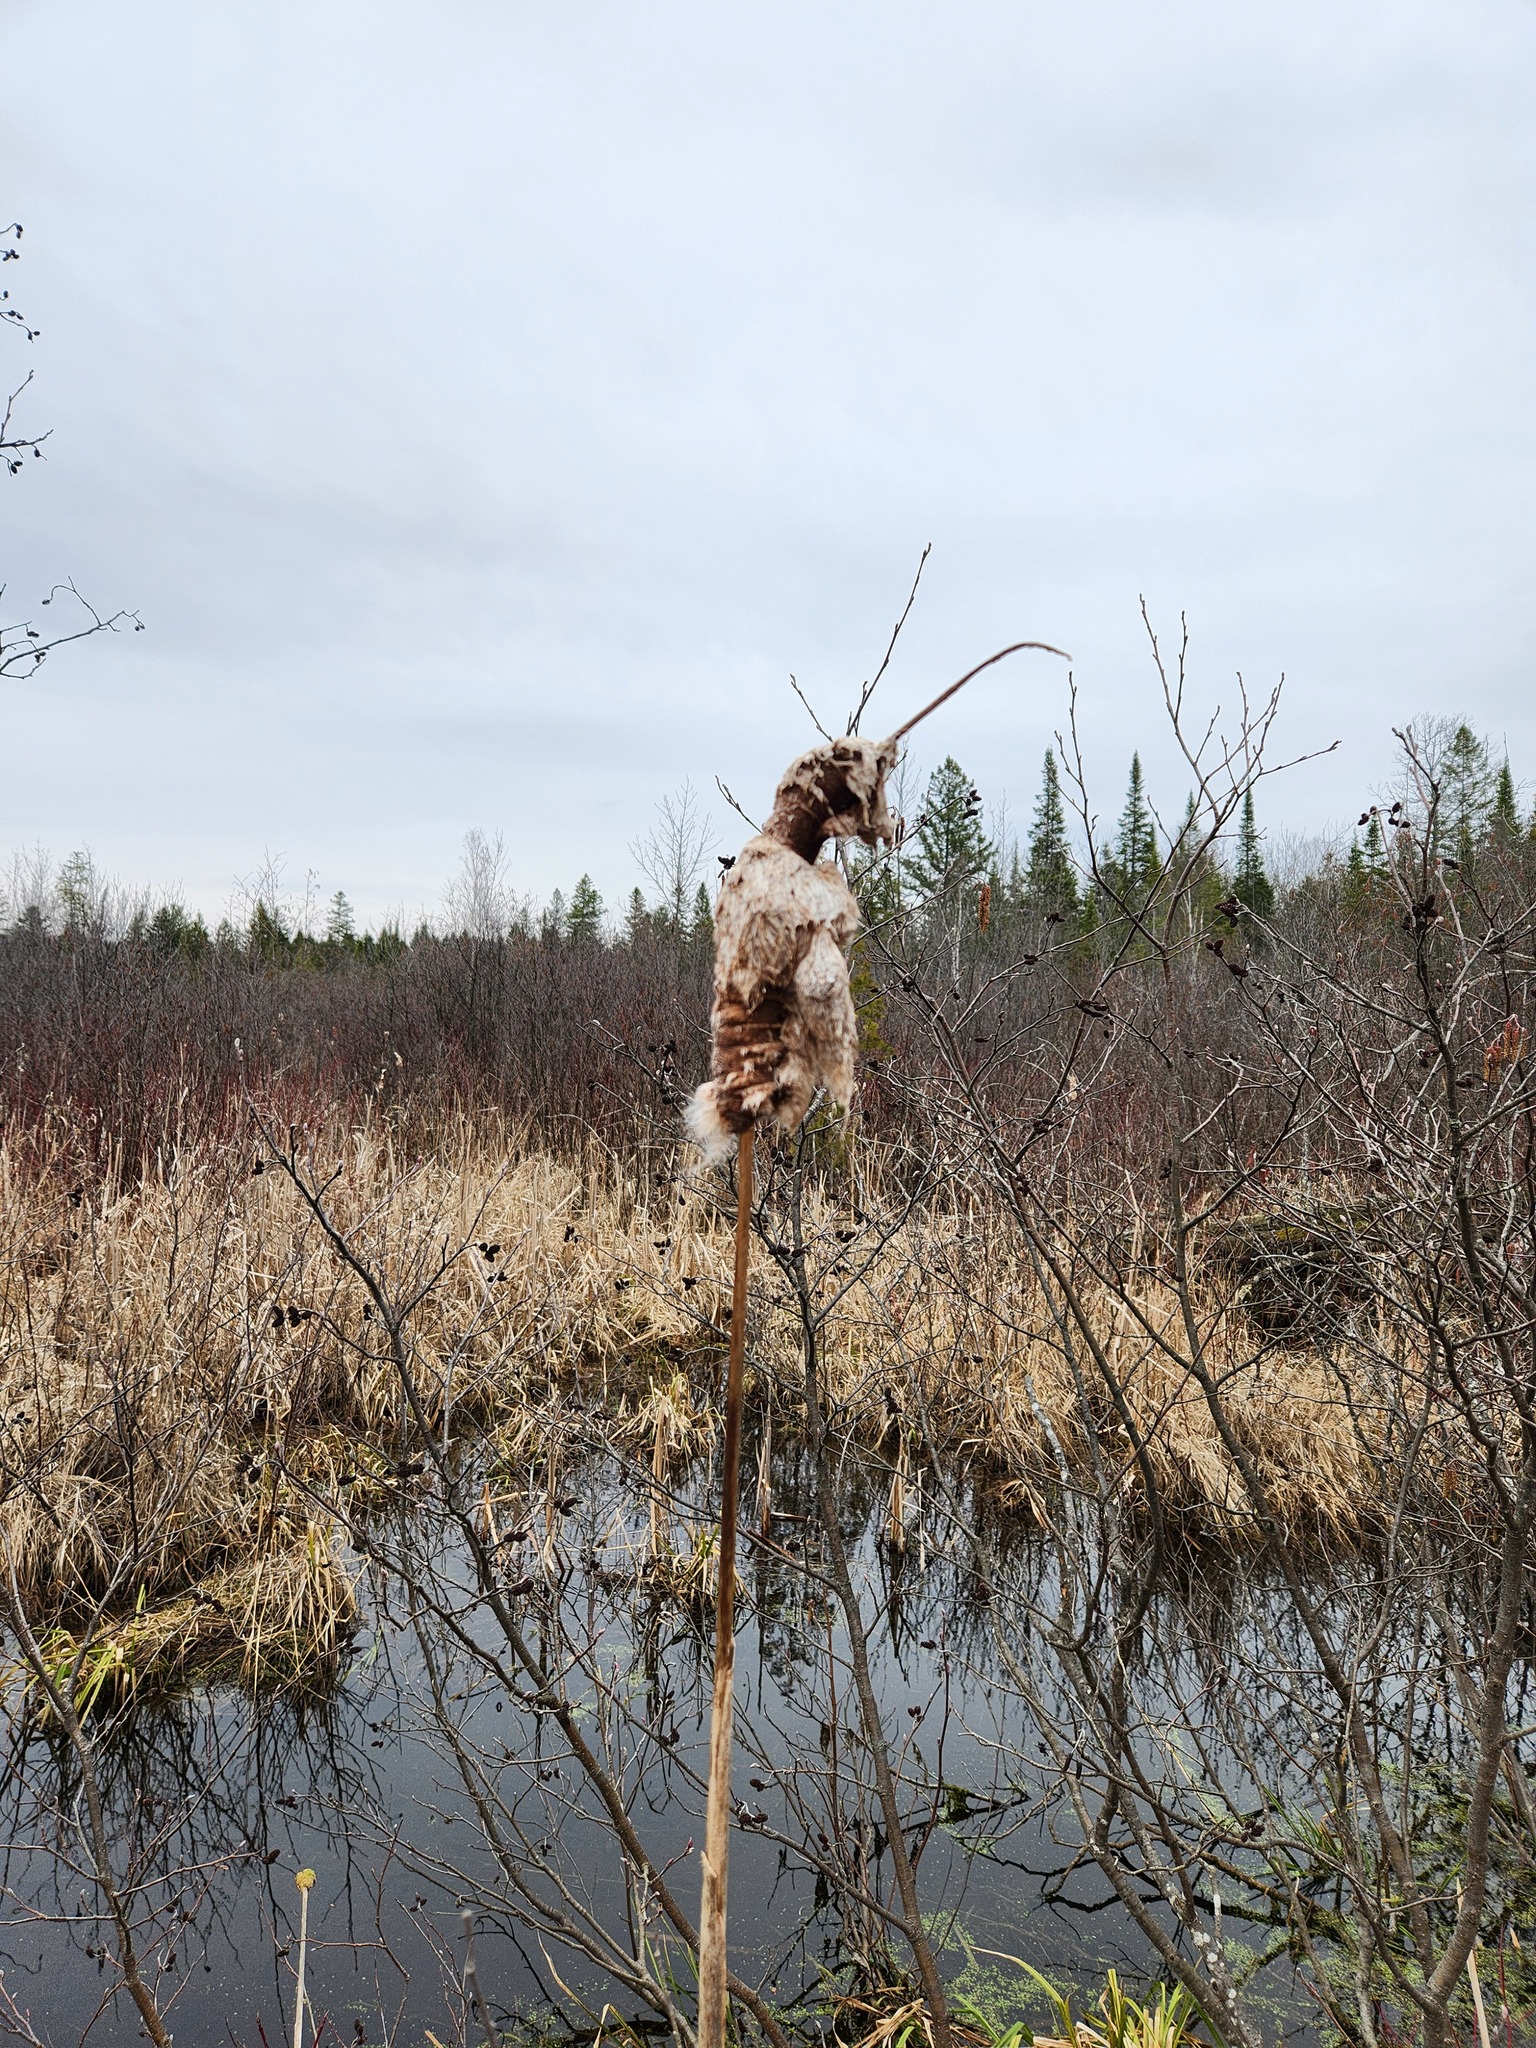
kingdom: Plantae
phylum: Tracheophyta
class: Liliopsida
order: Poales
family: Typhaceae
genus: Typha
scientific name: Typha latifolia
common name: Broadleaf cattail
